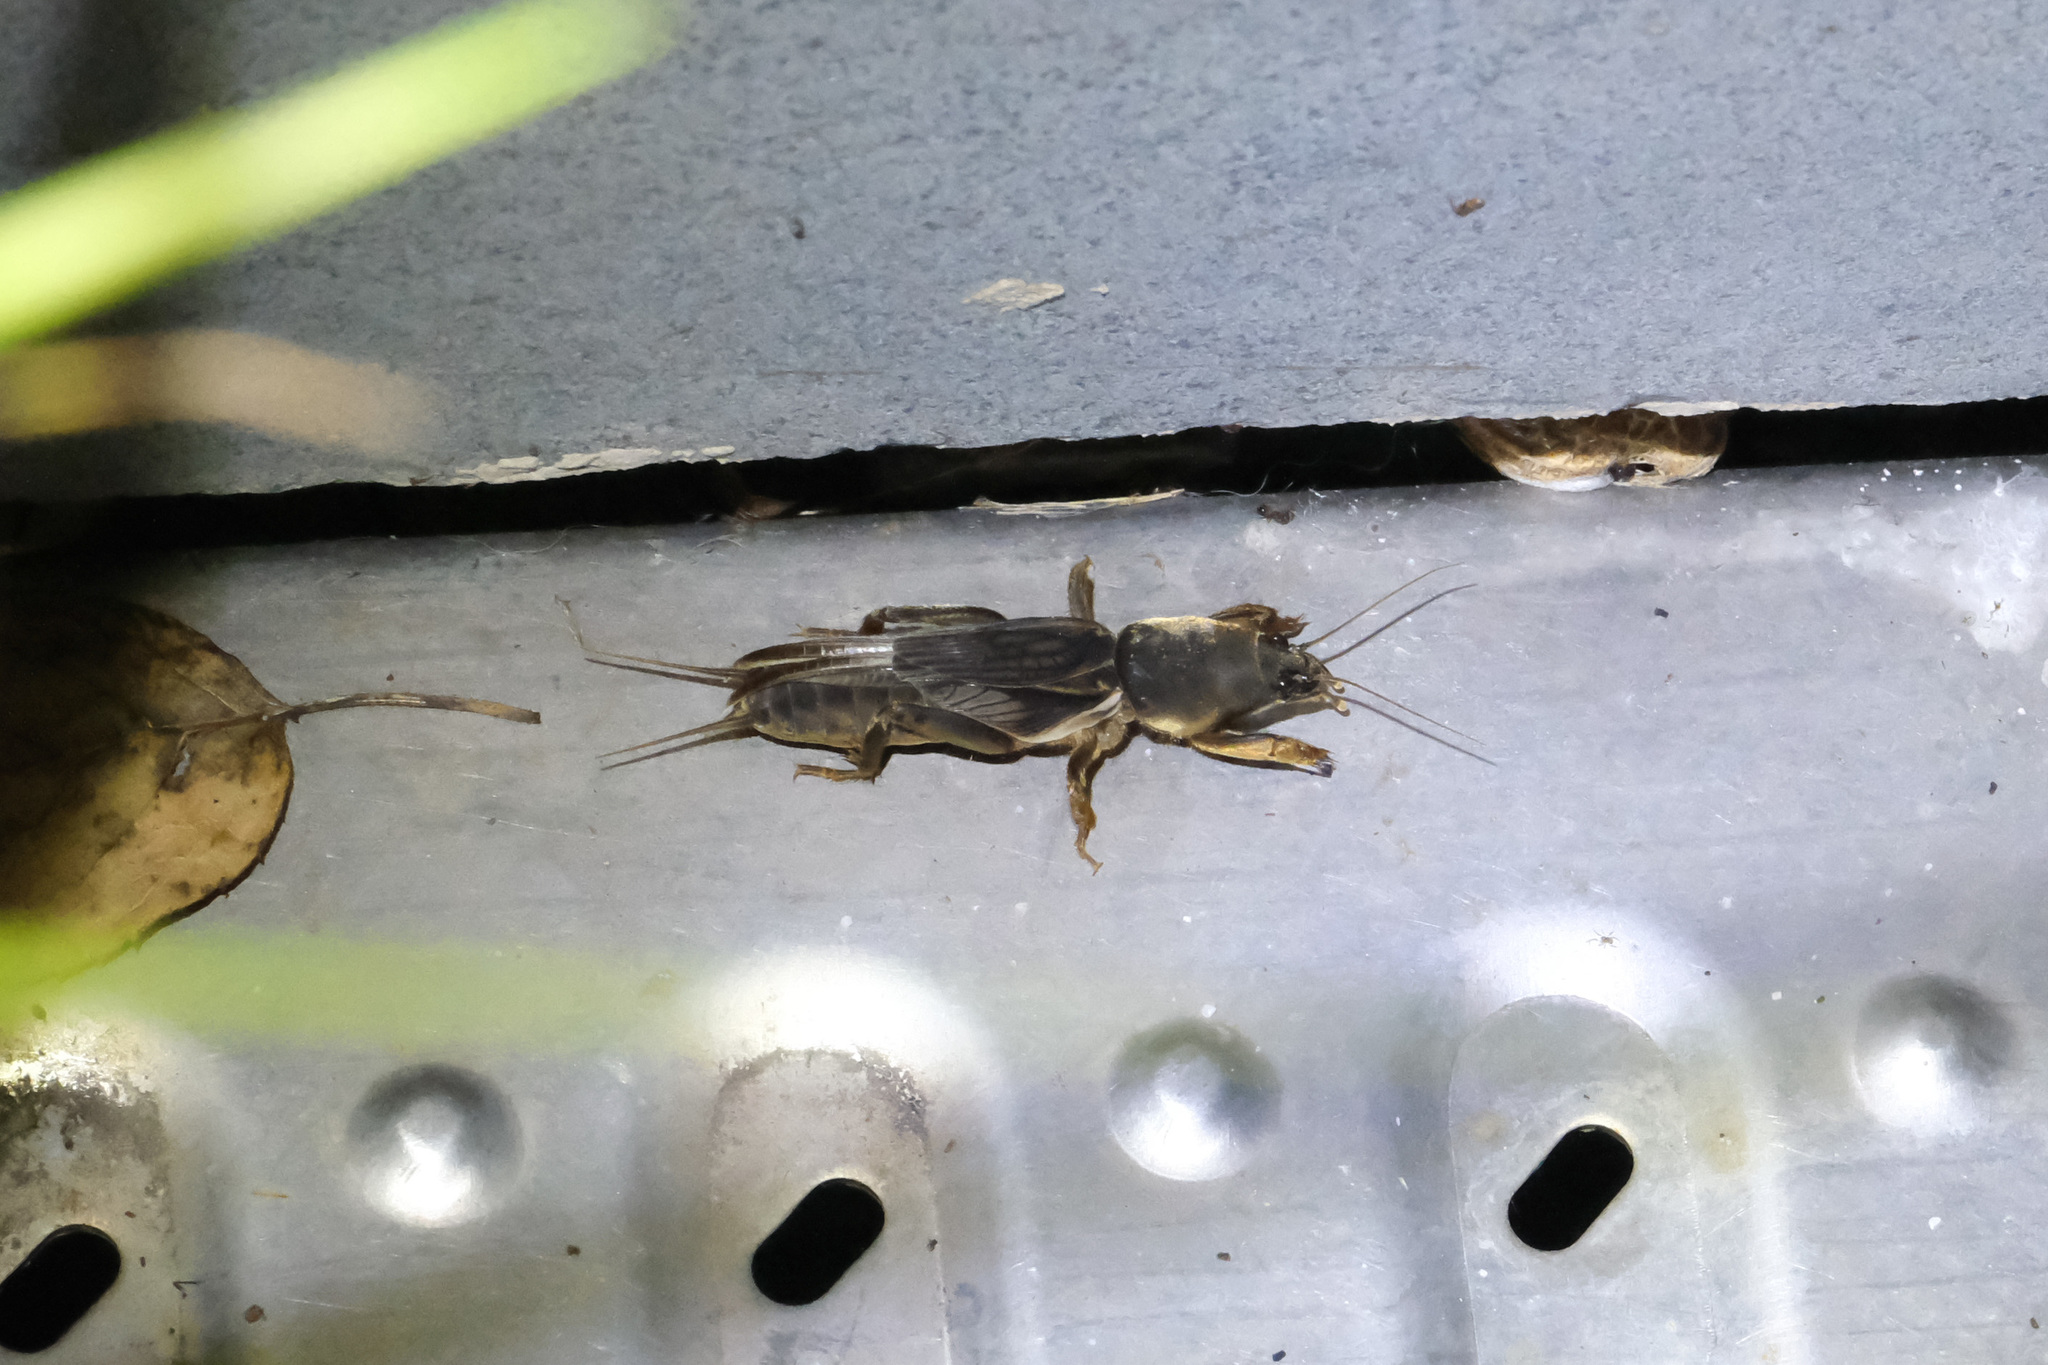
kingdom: Animalia
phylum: Arthropoda
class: Insecta
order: Orthoptera
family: Gryllotalpidae
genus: Gryllotalpa
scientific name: Gryllotalpa orientalis
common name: Grasshopper
